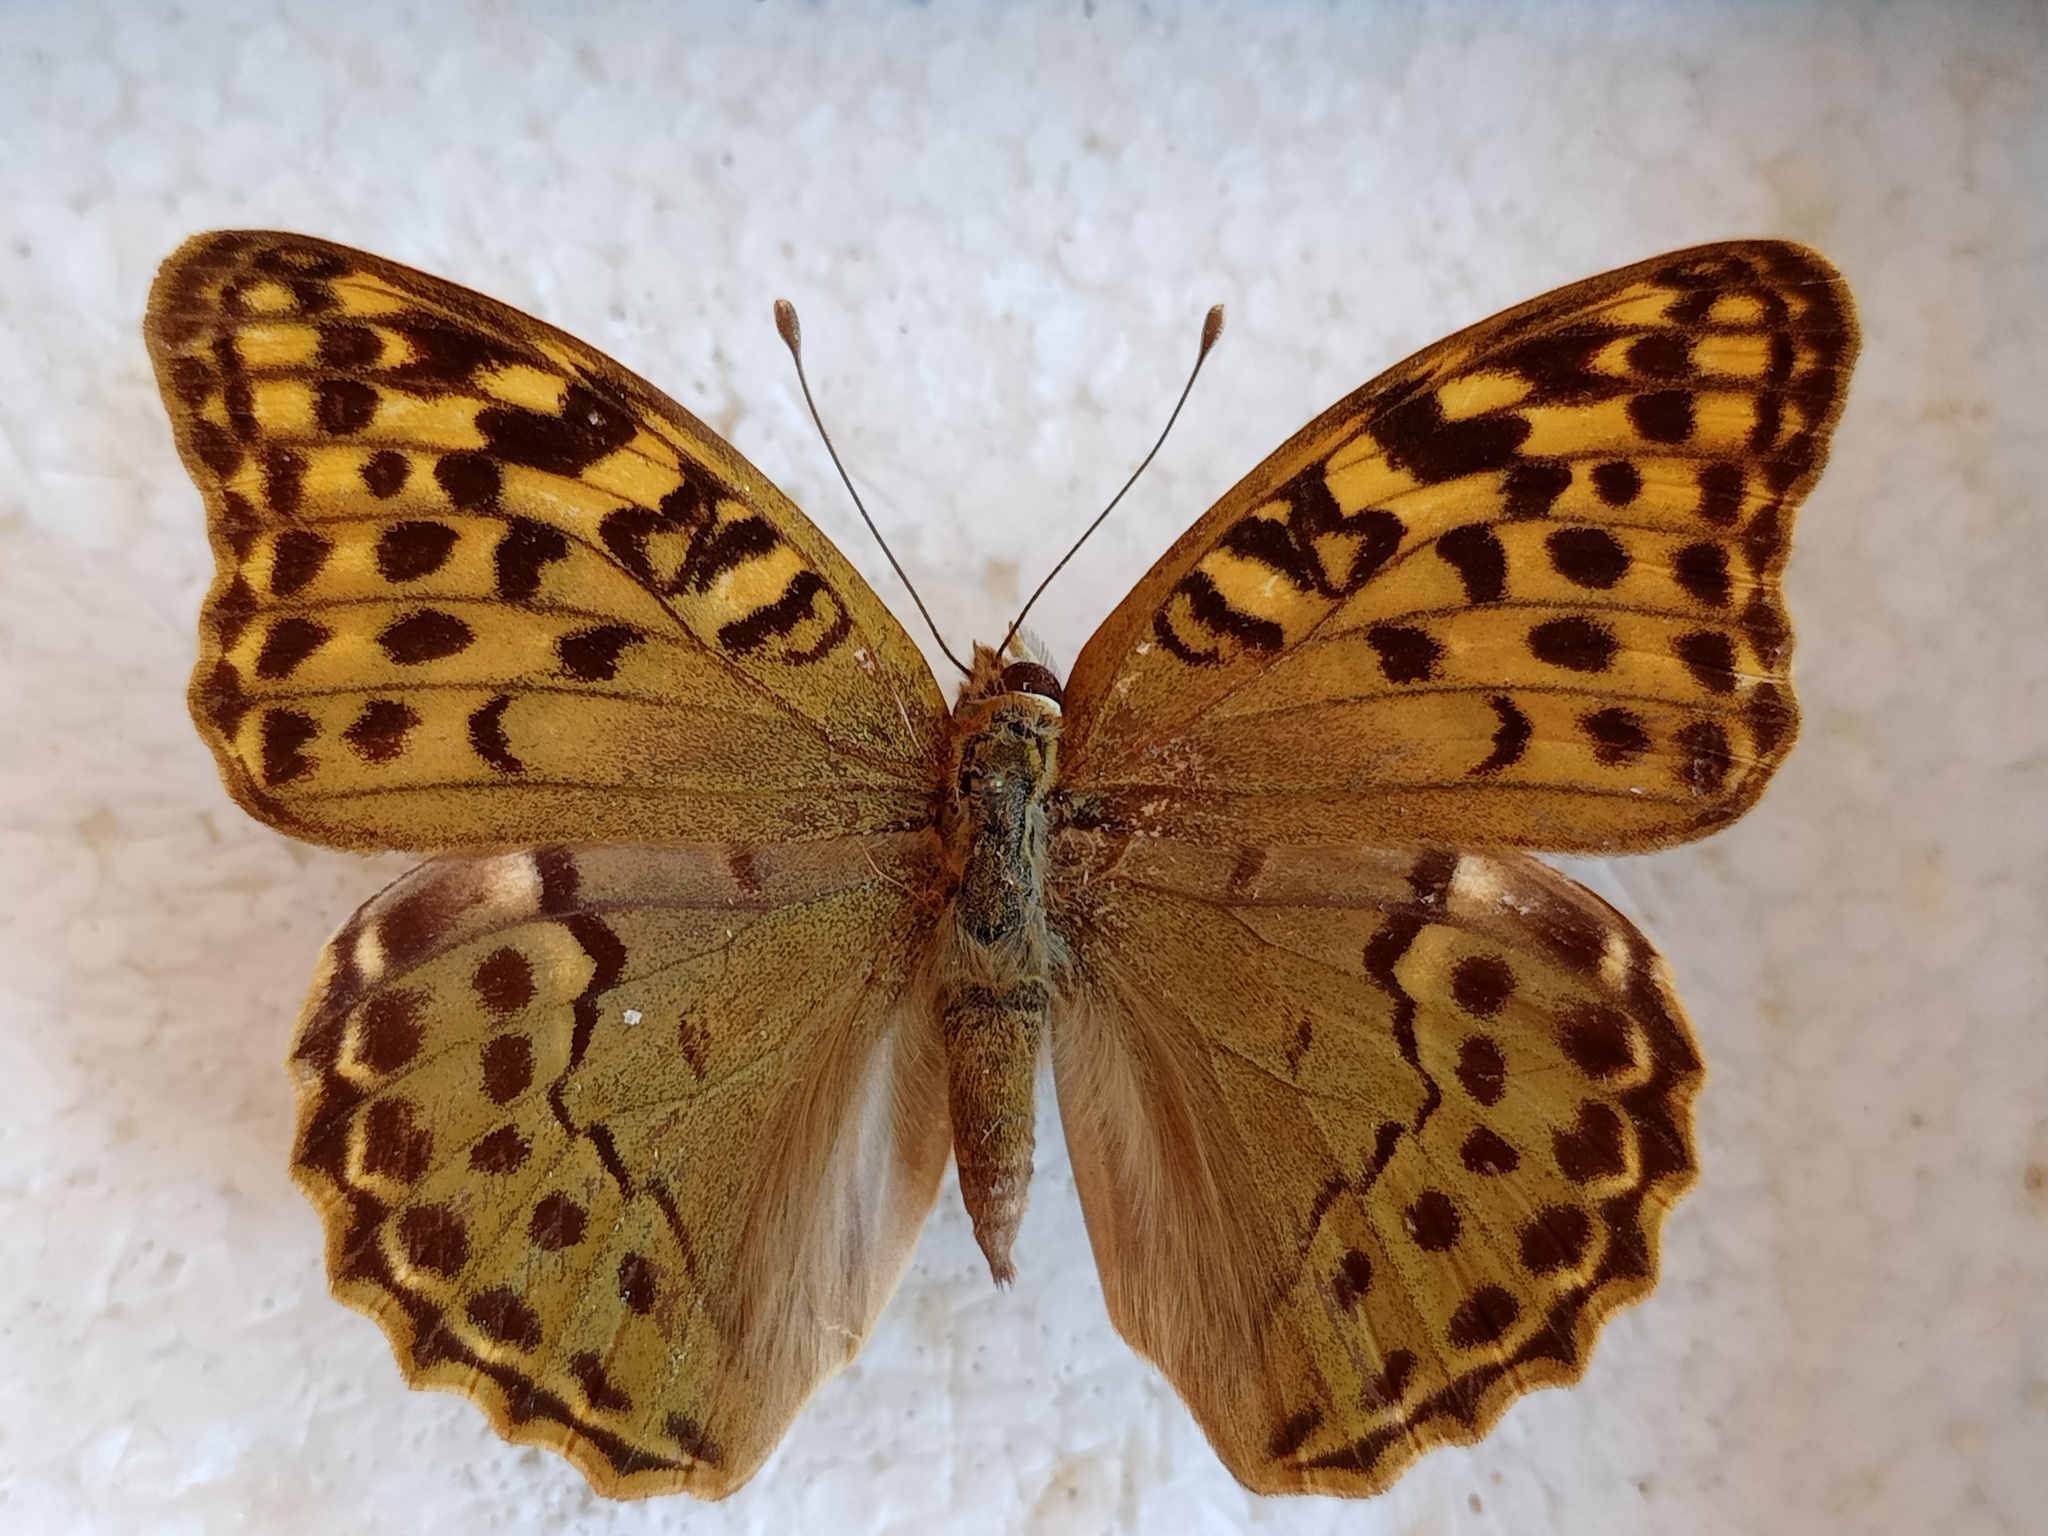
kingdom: Animalia
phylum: Arthropoda
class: Insecta
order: Lepidoptera
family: Nymphalidae
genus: Damora
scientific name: Damora pandora
